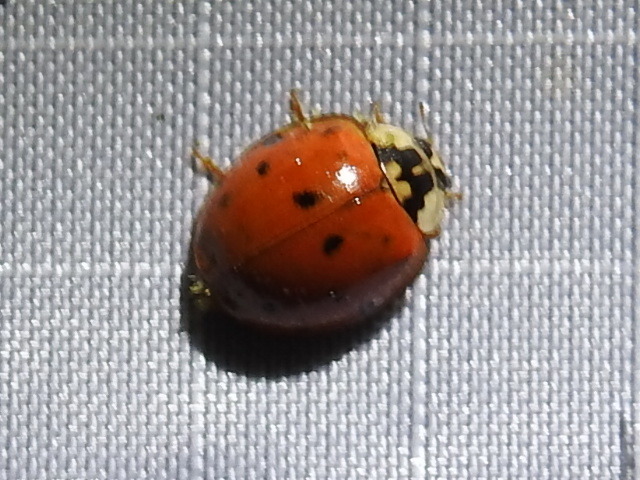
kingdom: Animalia
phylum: Arthropoda
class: Insecta
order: Coleoptera
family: Coccinellidae
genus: Harmonia
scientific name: Harmonia axyridis
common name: Harlequin ladybird
